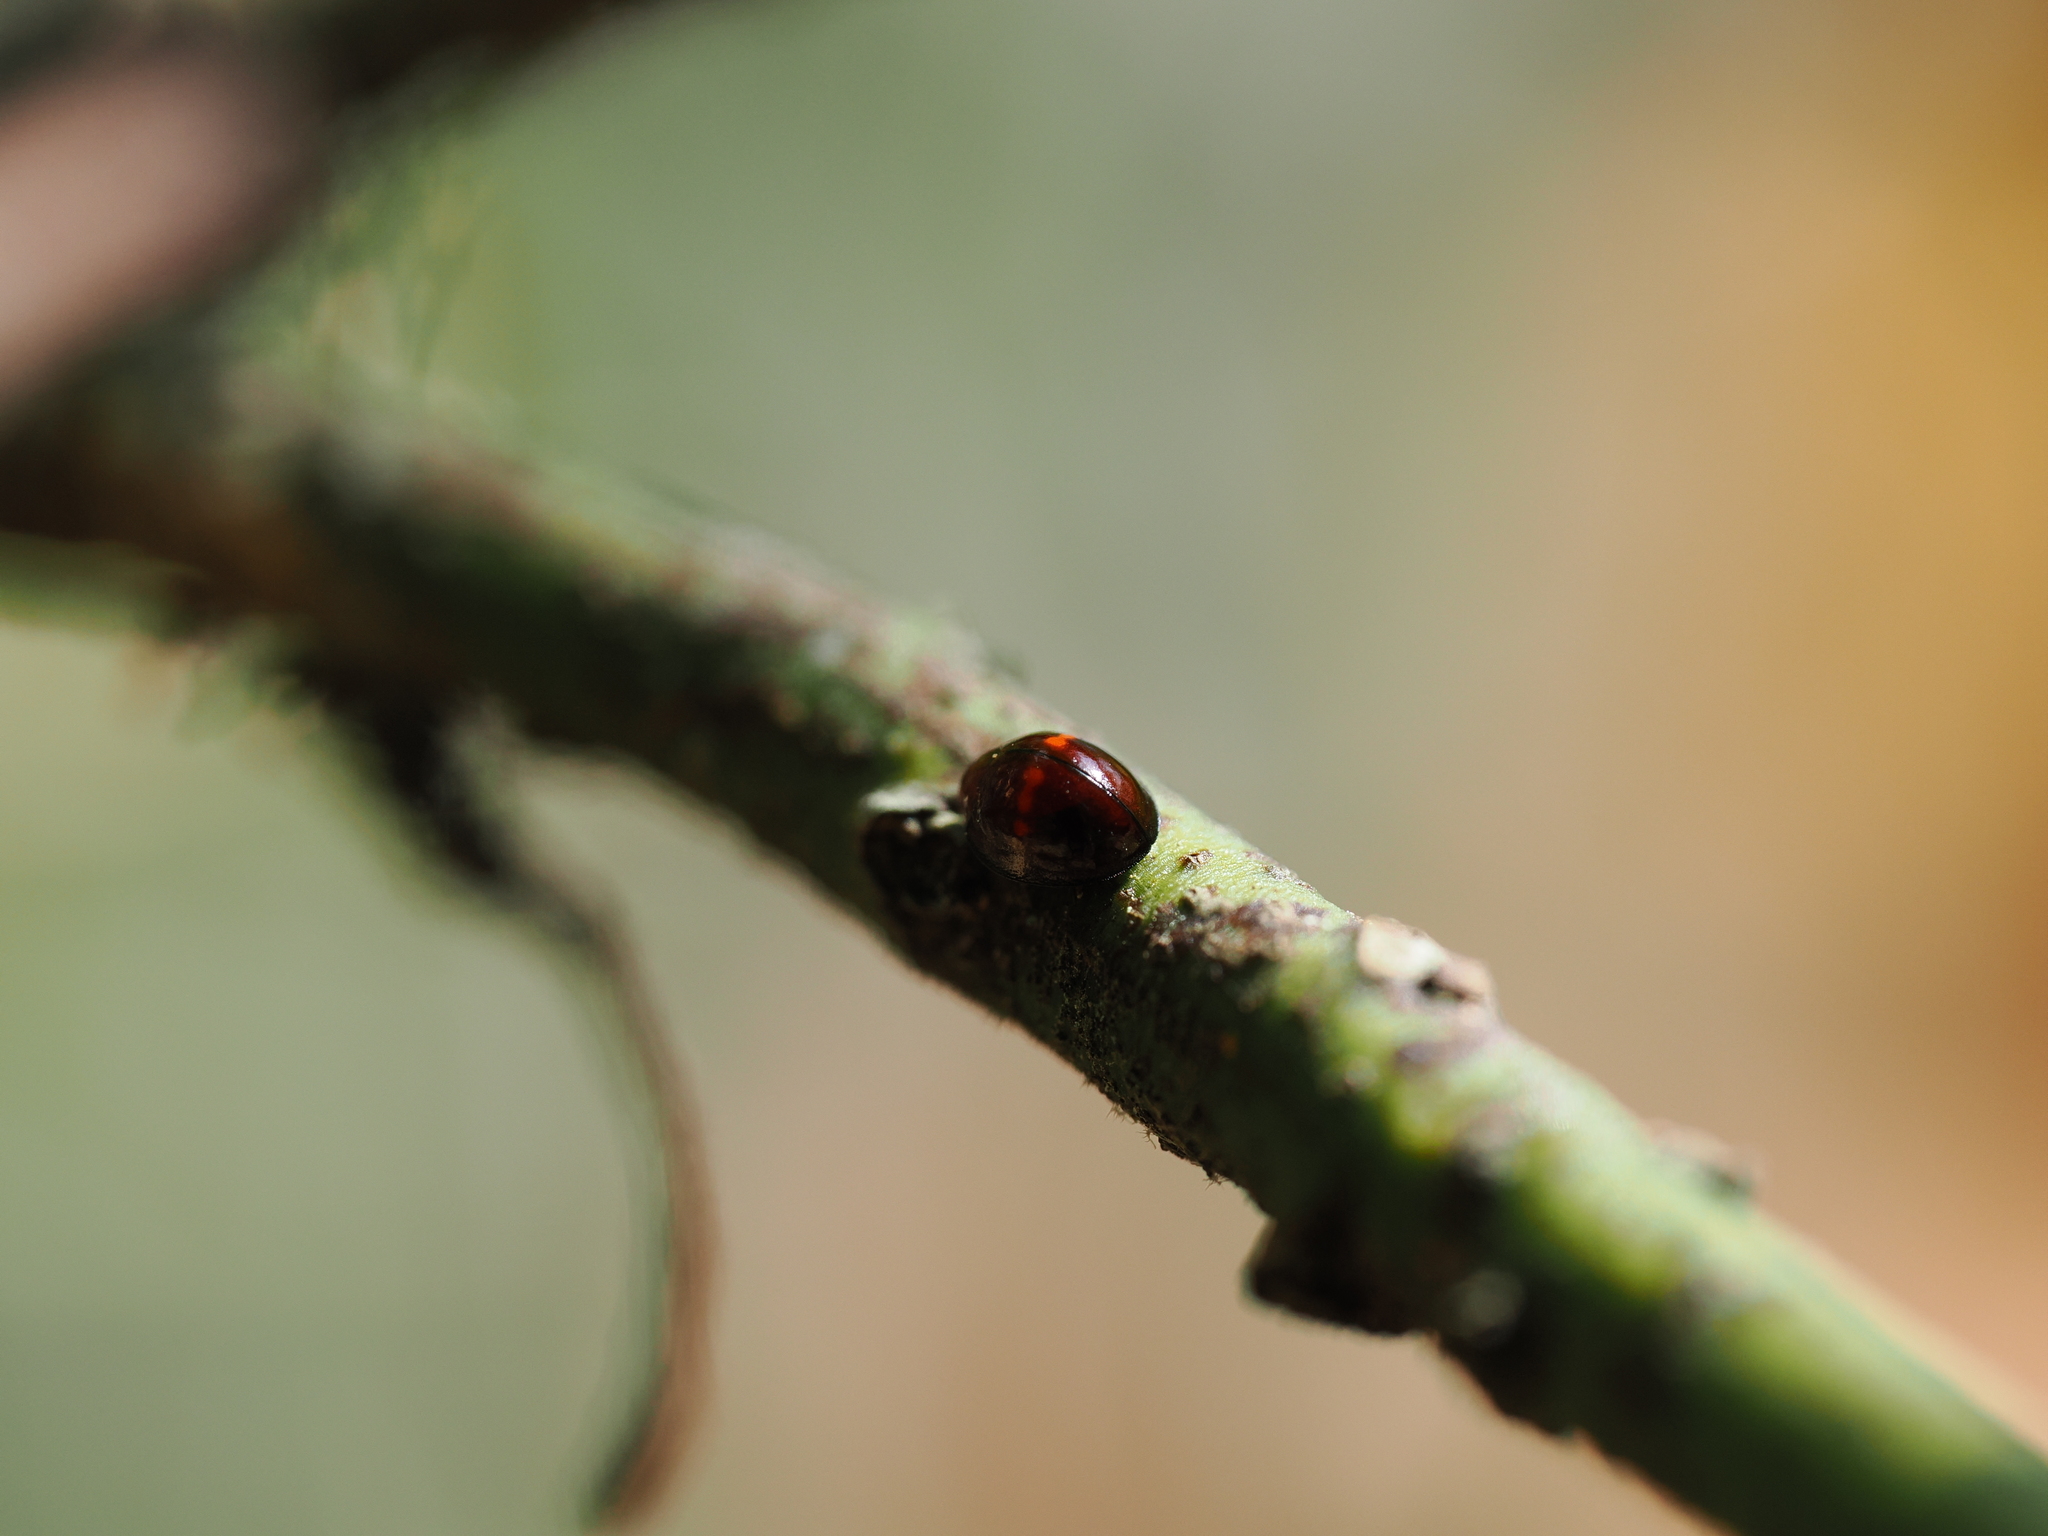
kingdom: Animalia
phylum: Arthropoda
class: Insecta
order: Coleoptera
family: Coccinellidae
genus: Chilocorus
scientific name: Chilocorus bipustulatus
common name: Heather ladybird
